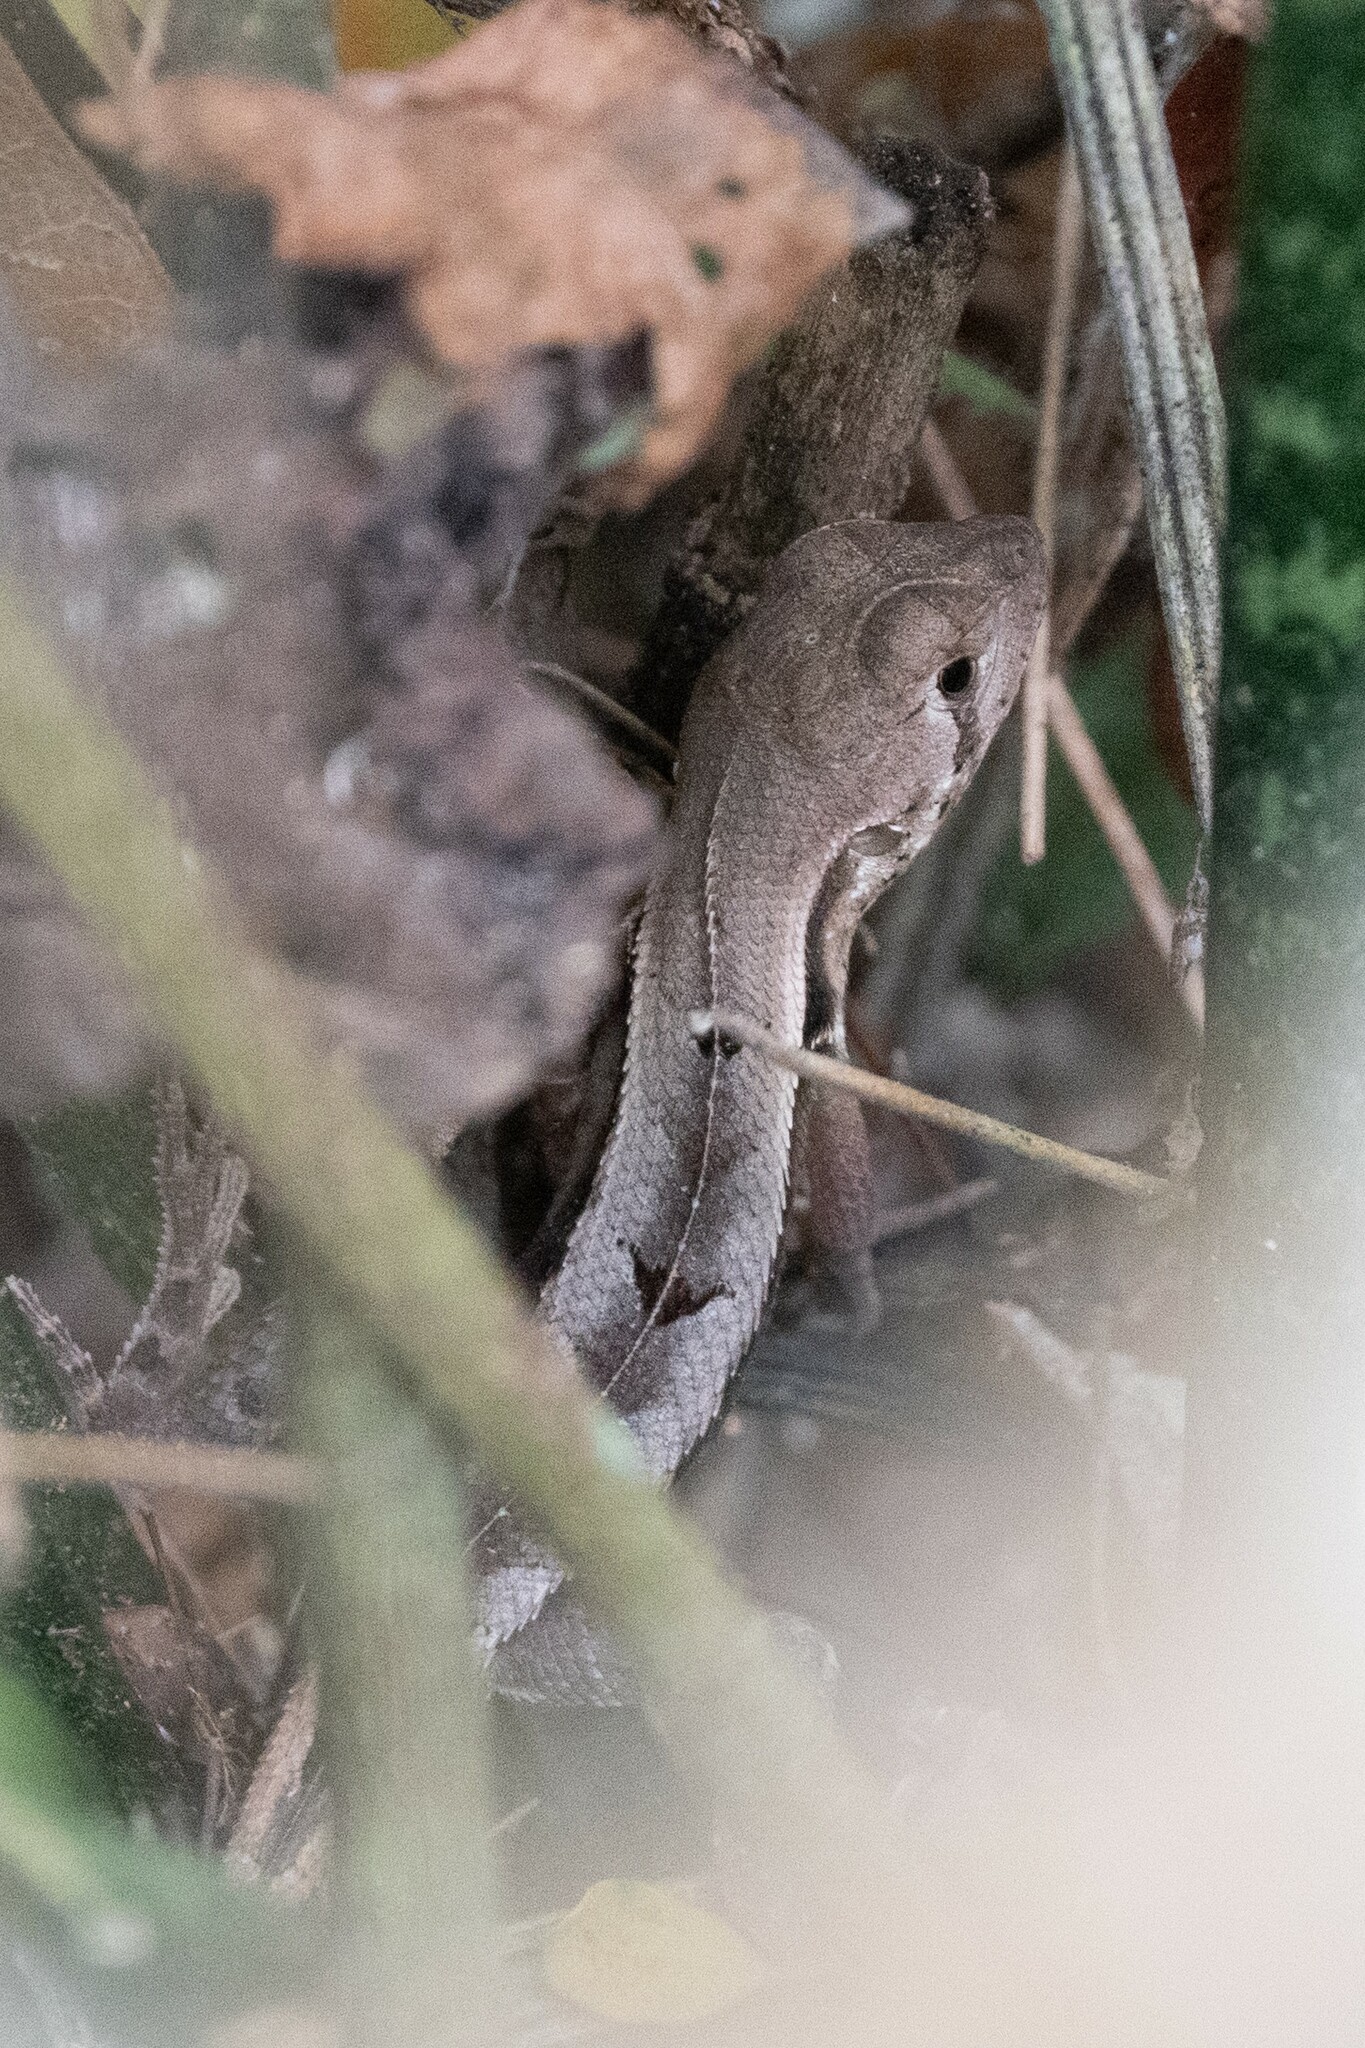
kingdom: Animalia
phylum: Chordata
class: Squamata
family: Tropiduridae
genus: Stenocercus
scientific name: Stenocercus iridescens
